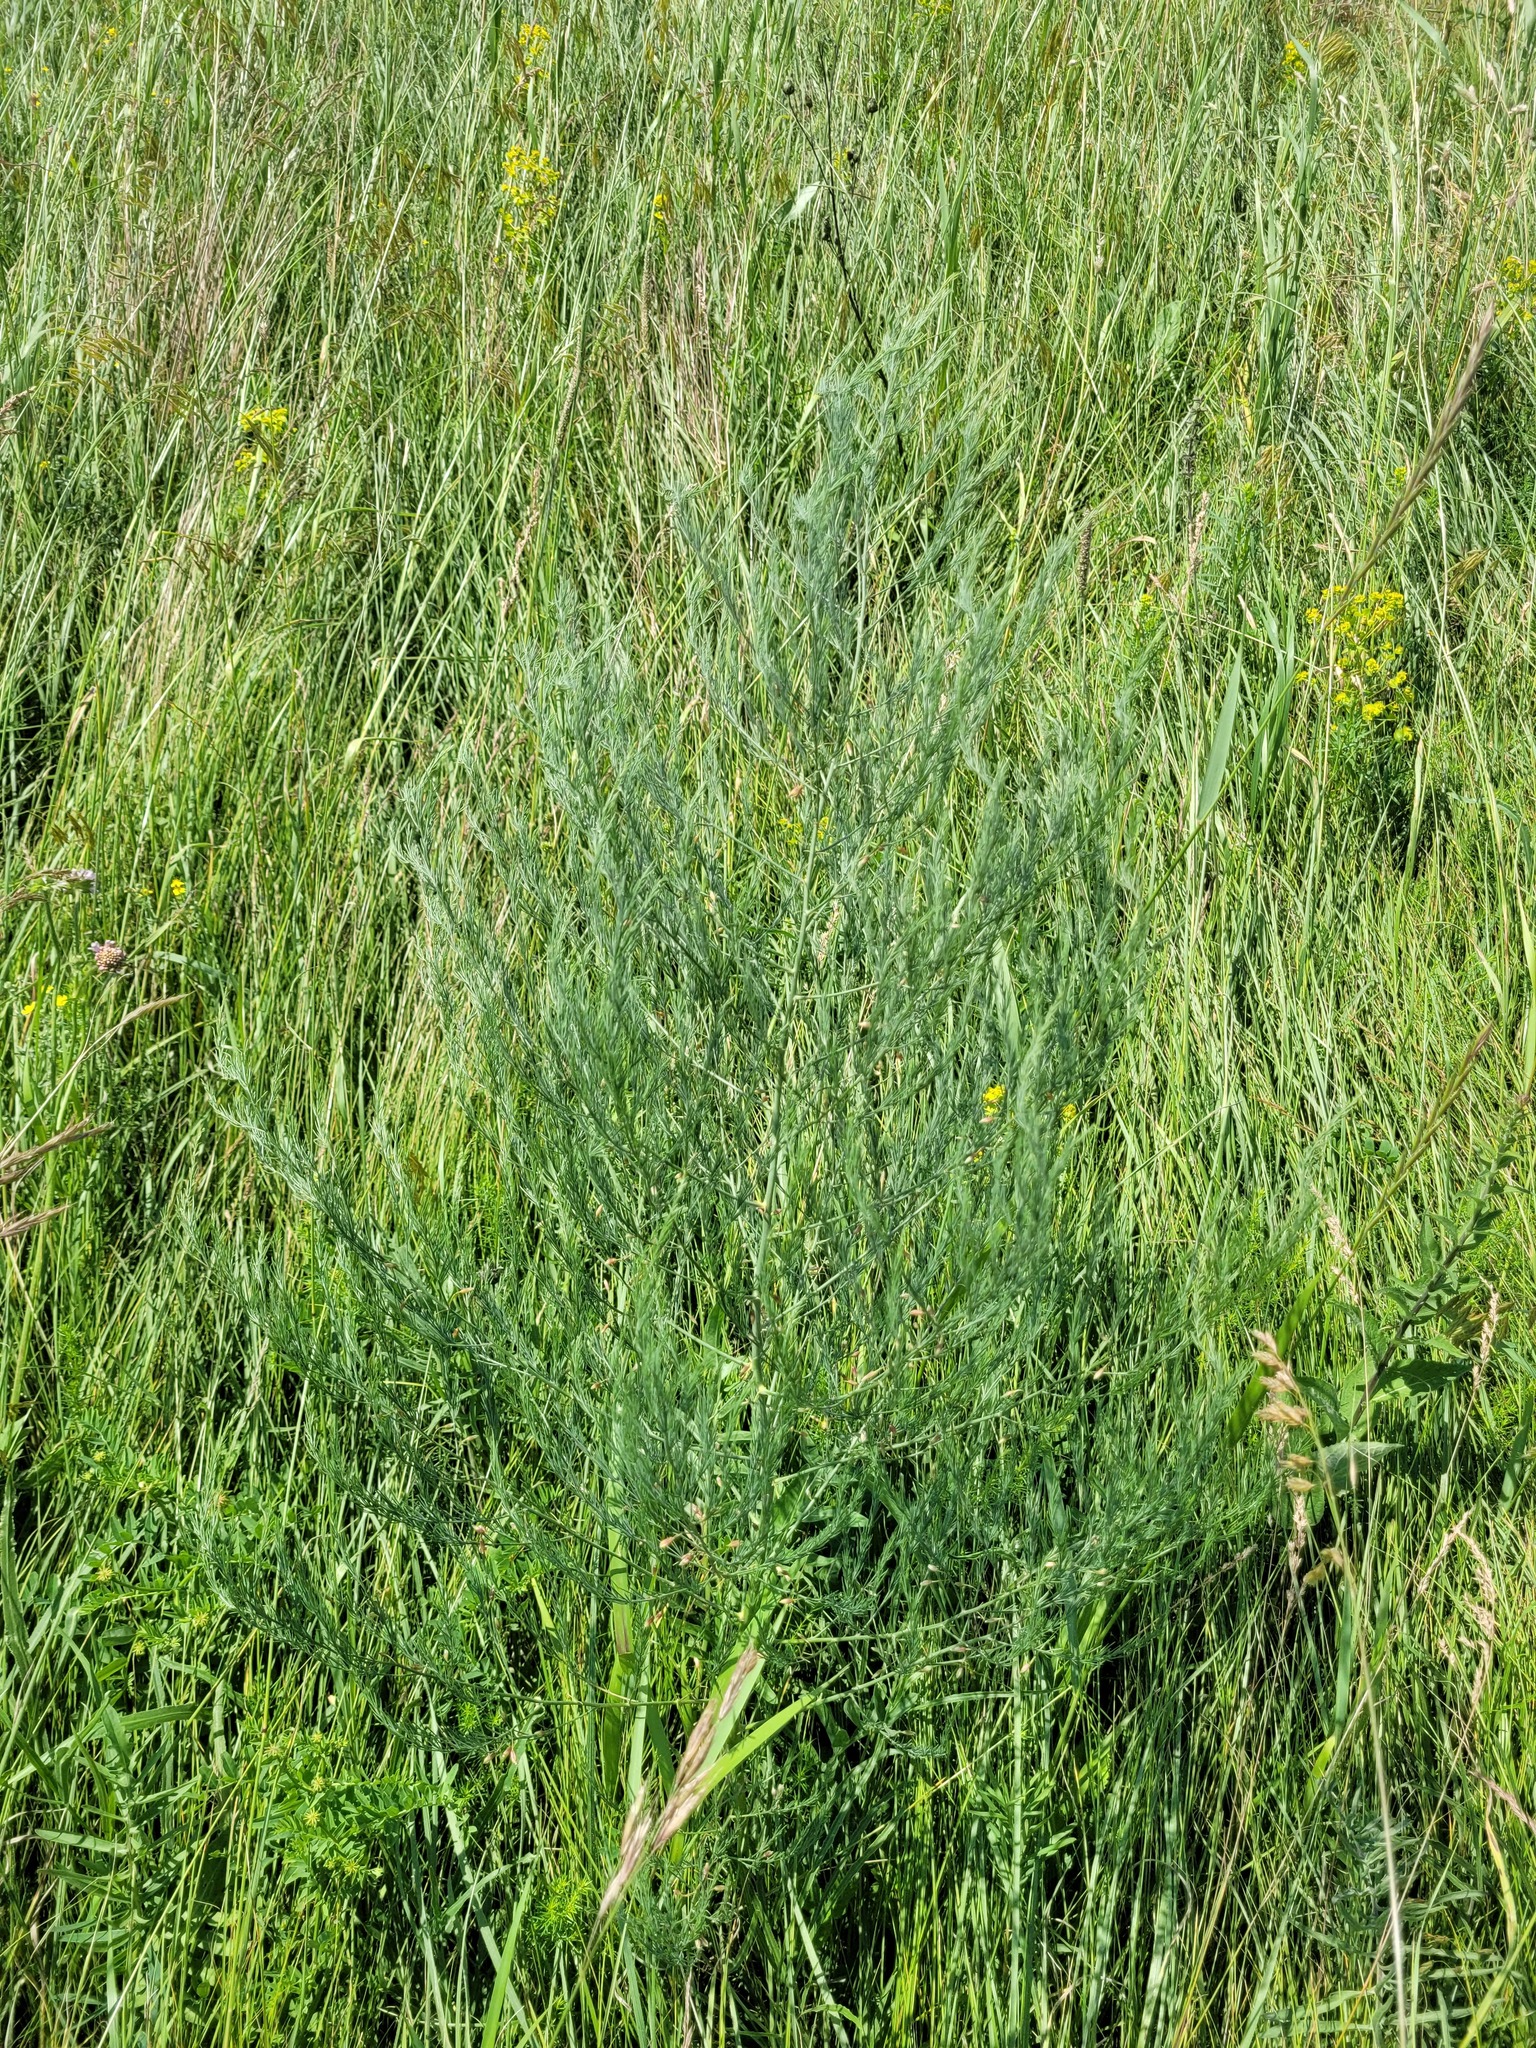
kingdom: Plantae
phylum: Tracheophyta
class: Liliopsida
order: Asparagales
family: Asparagaceae
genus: Asparagus
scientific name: Asparagus officinalis
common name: Garden asparagus
